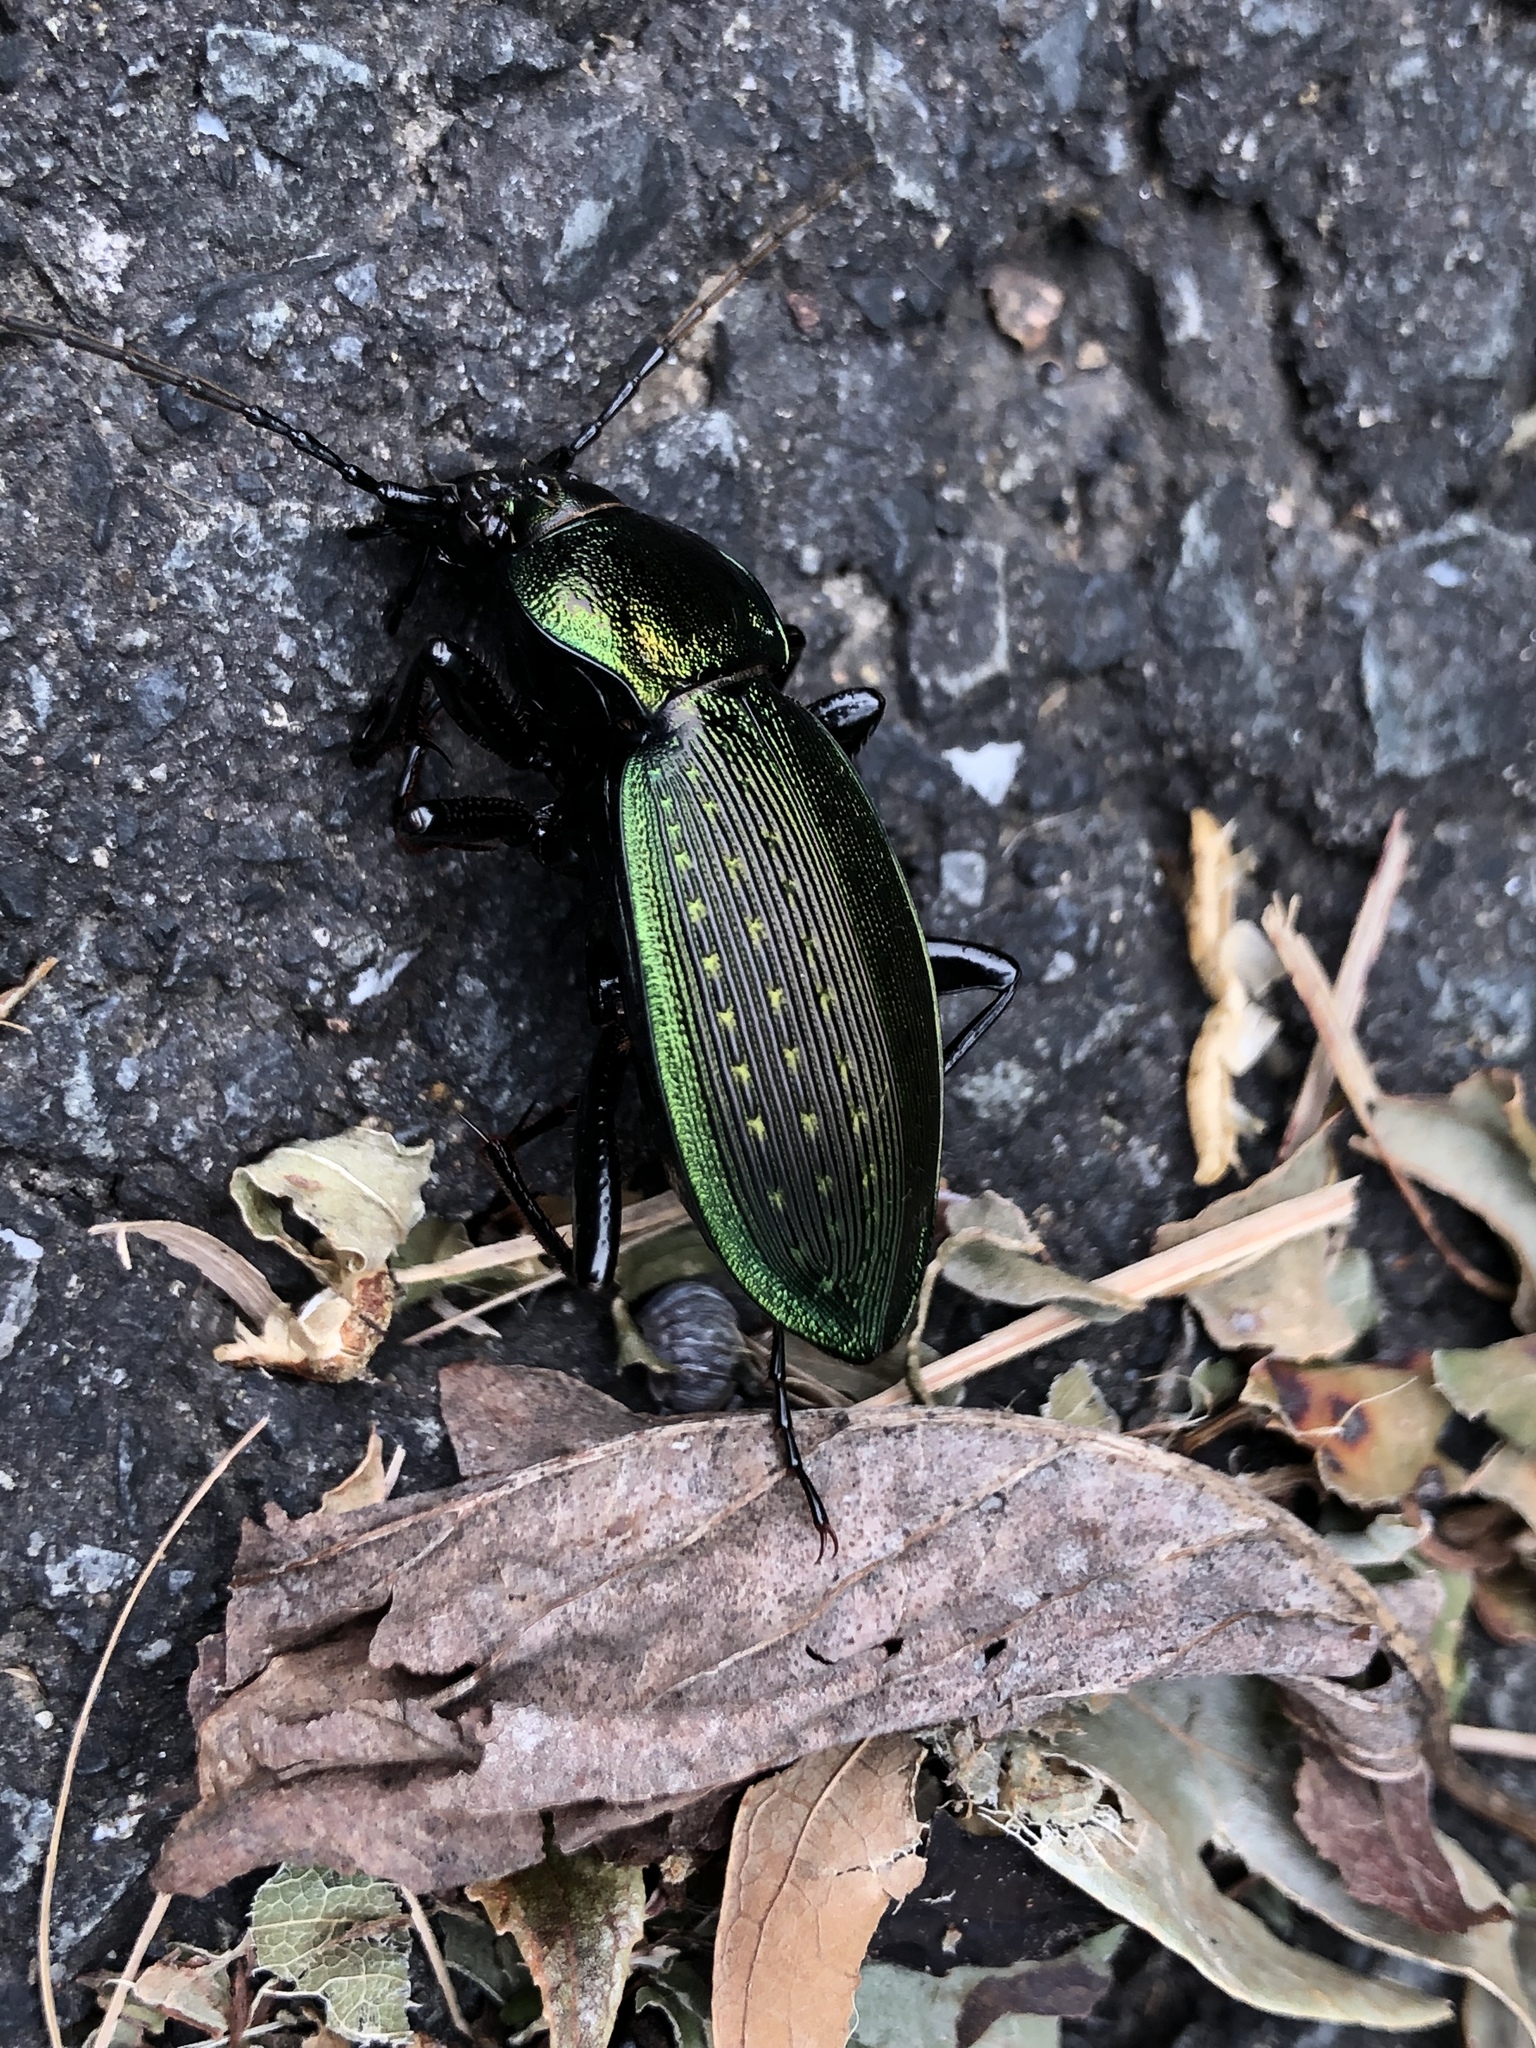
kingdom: Animalia
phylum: Arthropoda
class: Insecta
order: Coleoptera
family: Carabidae
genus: Carabus
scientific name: Carabus insulicola
